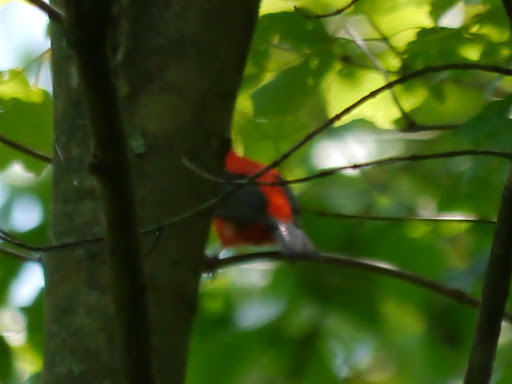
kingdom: Animalia
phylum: Chordata
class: Aves
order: Passeriformes
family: Cardinalidae
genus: Piranga
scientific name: Piranga olivacea
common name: Scarlet tanager
